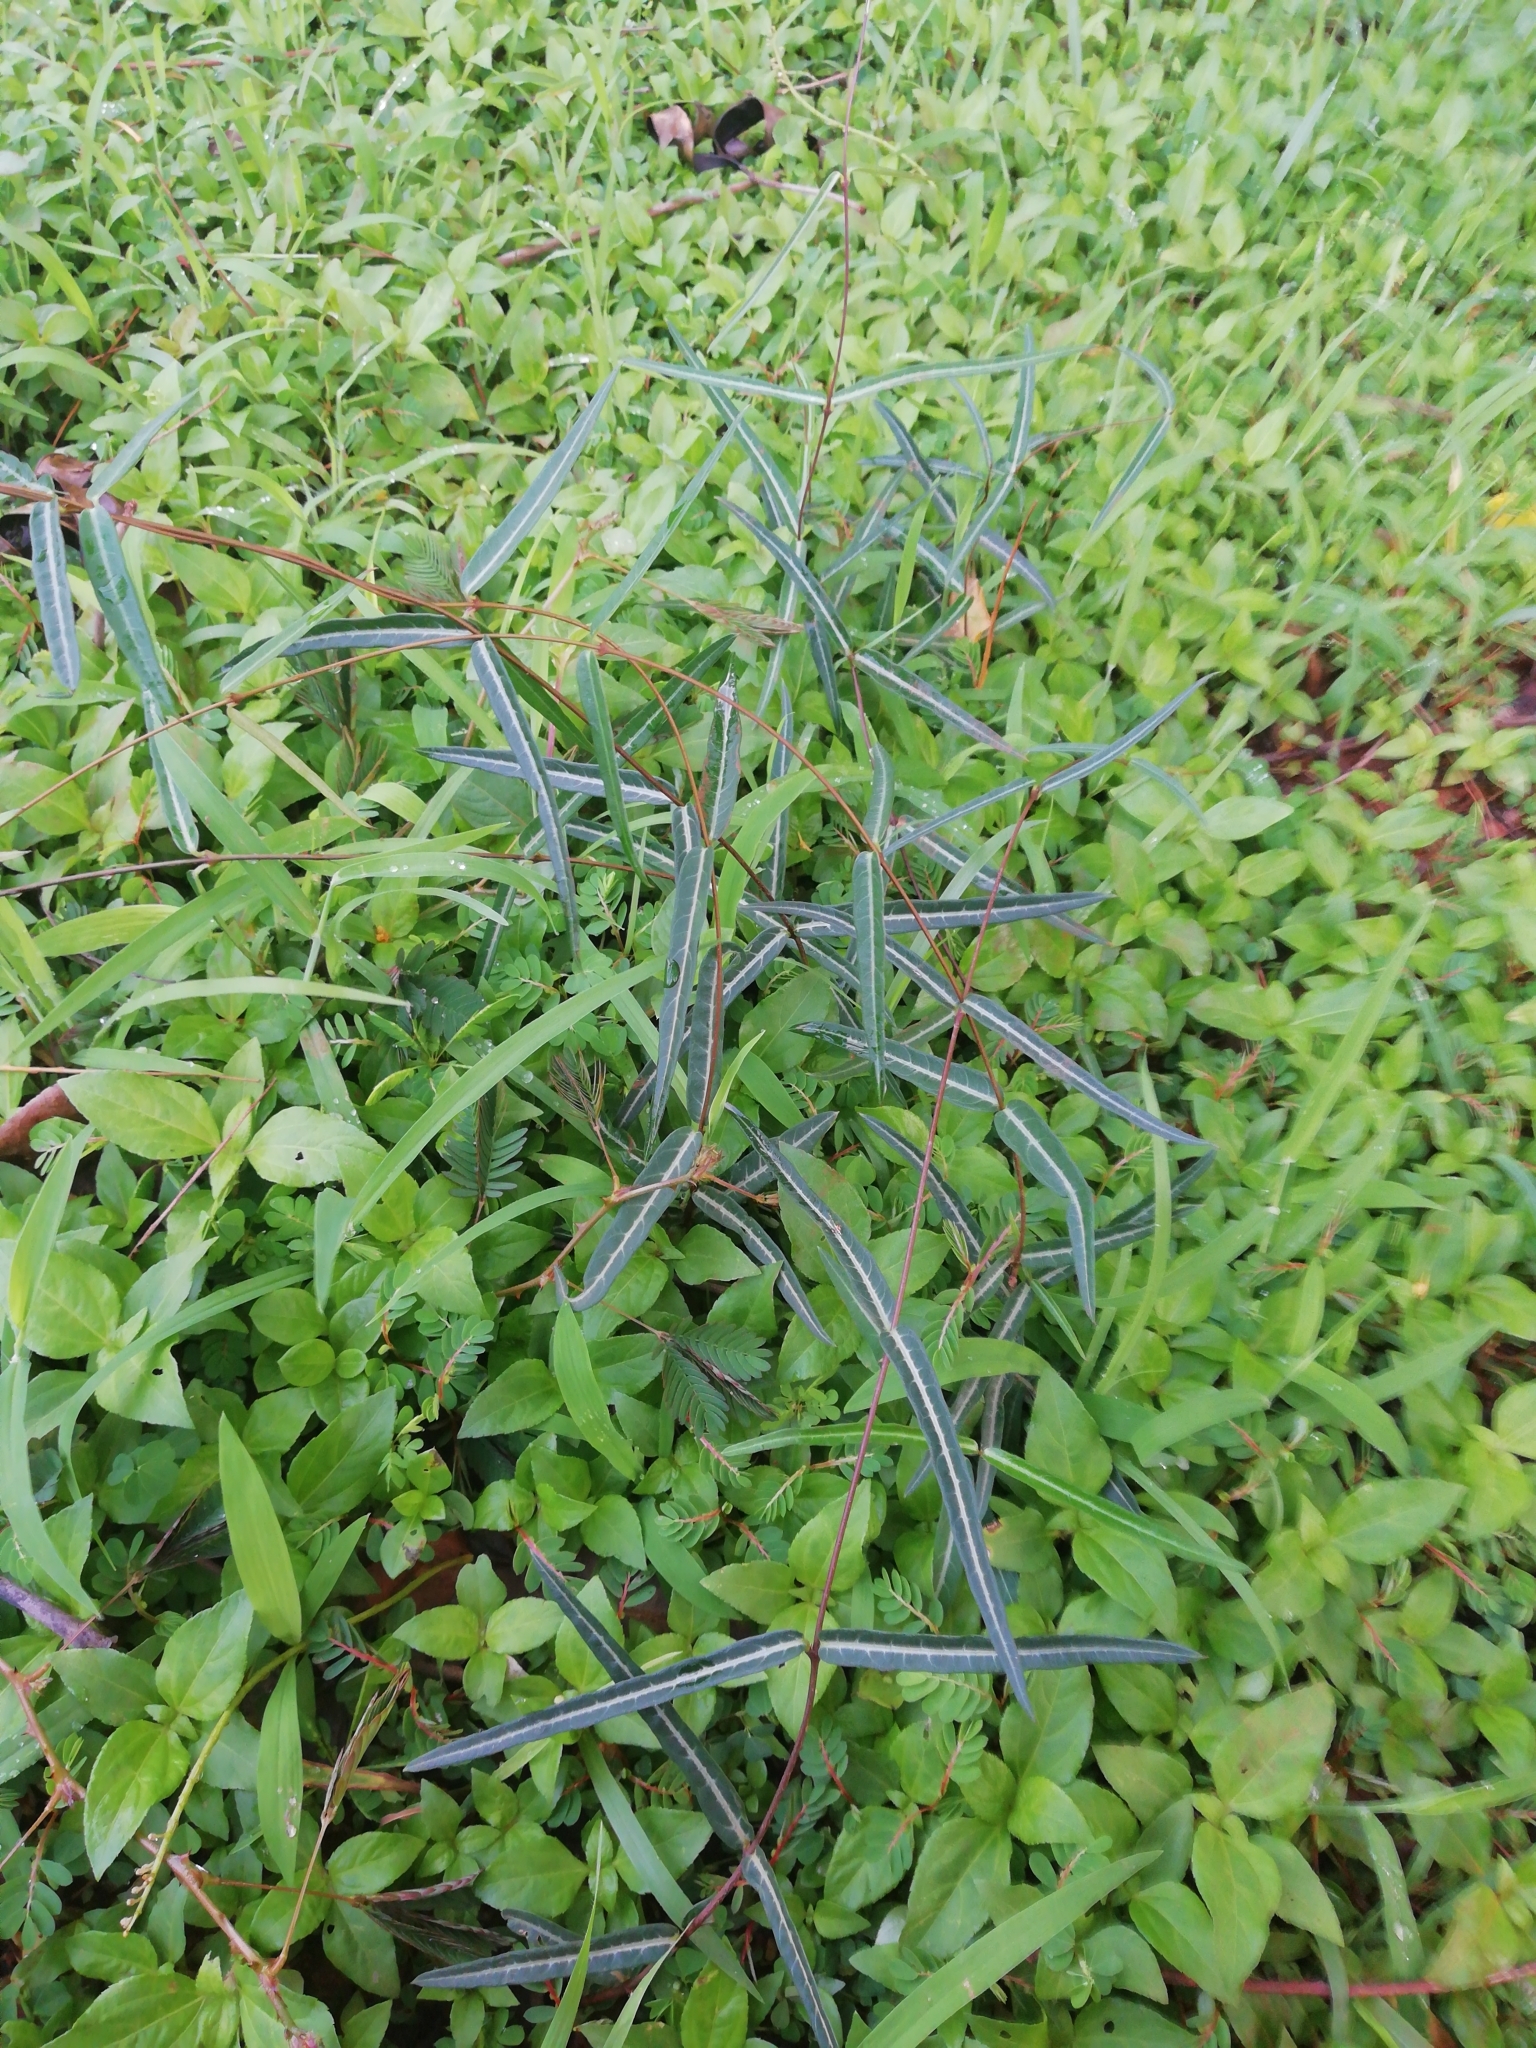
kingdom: Plantae
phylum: Tracheophyta
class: Magnoliopsida
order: Gentianales
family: Apocynaceae
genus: Hemidesmus
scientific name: Hemidesmus indicus
